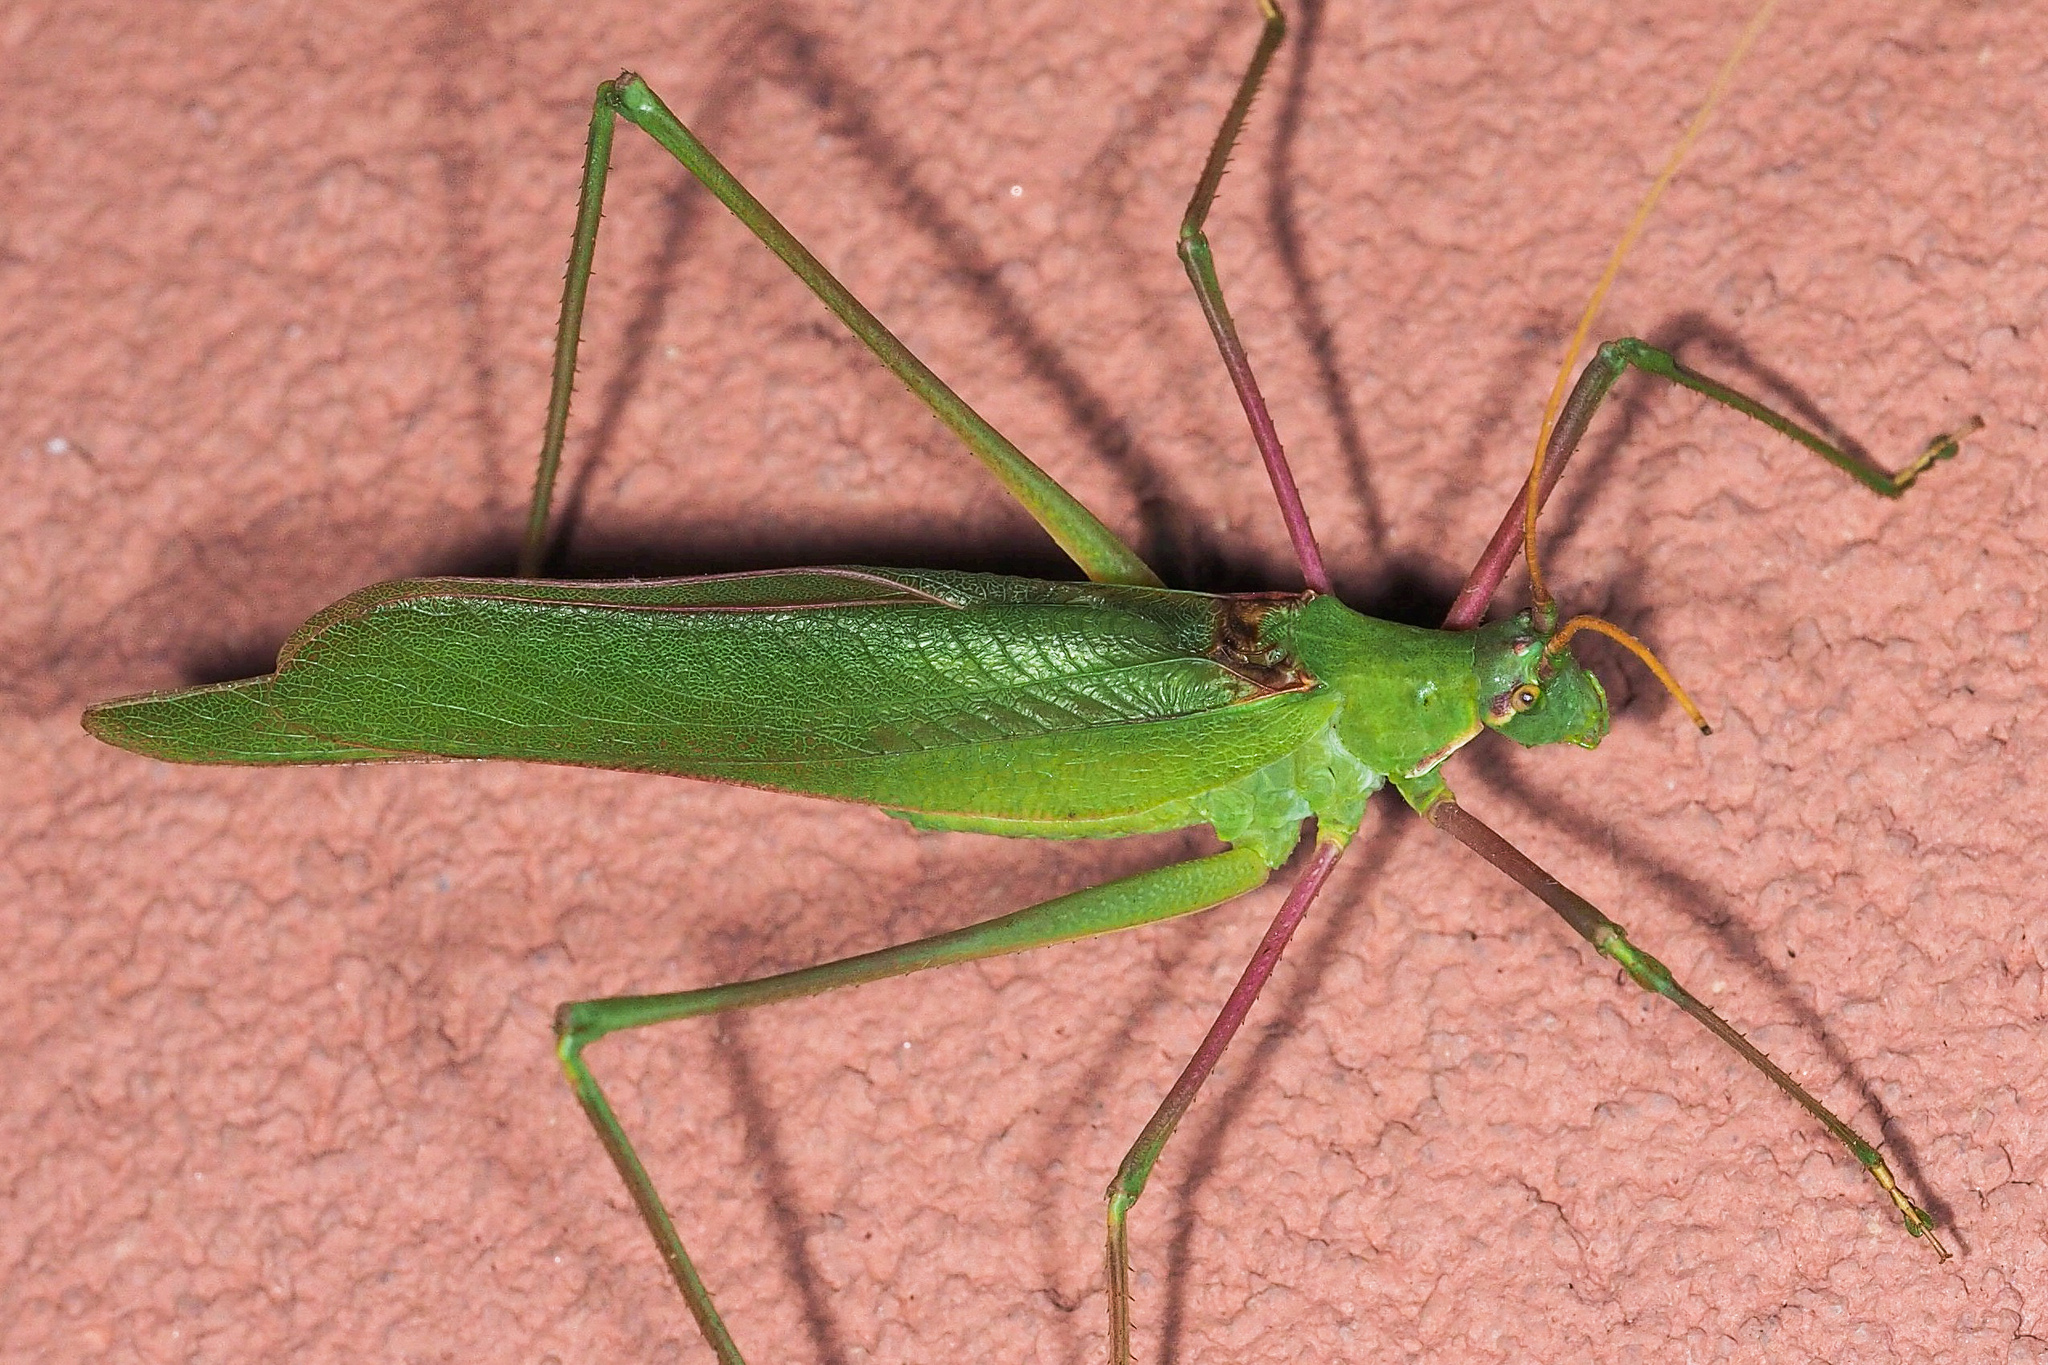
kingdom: Animalia
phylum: Arthropoda
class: Insecta
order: Orthoptera
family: Tettigoniidae
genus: Acrometopa
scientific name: Acrometopa italica
